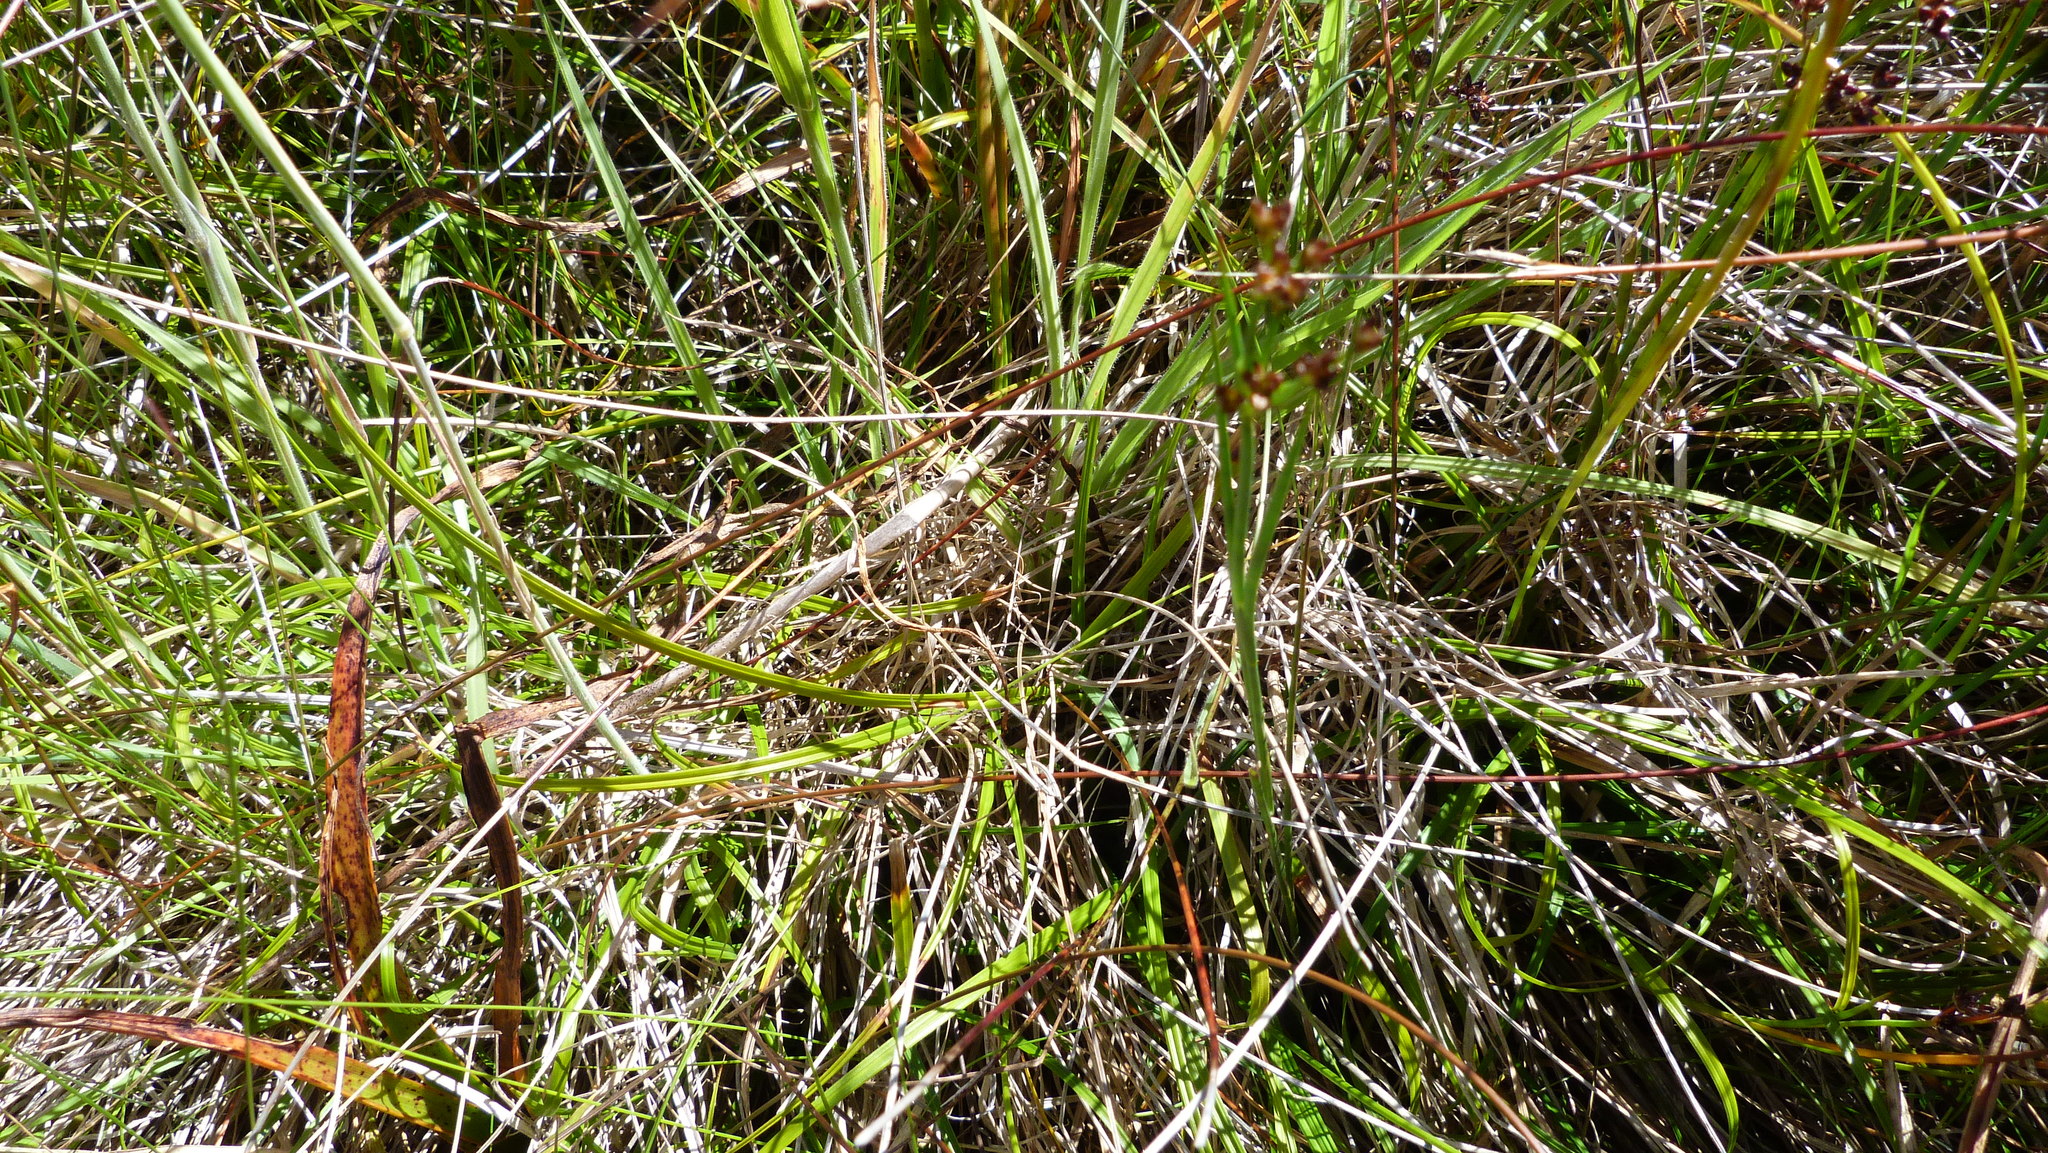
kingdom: Plantae
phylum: Tracheophyta
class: Liliopsida
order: Poales
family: Cyperaceae
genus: Carex
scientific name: Carex edura
